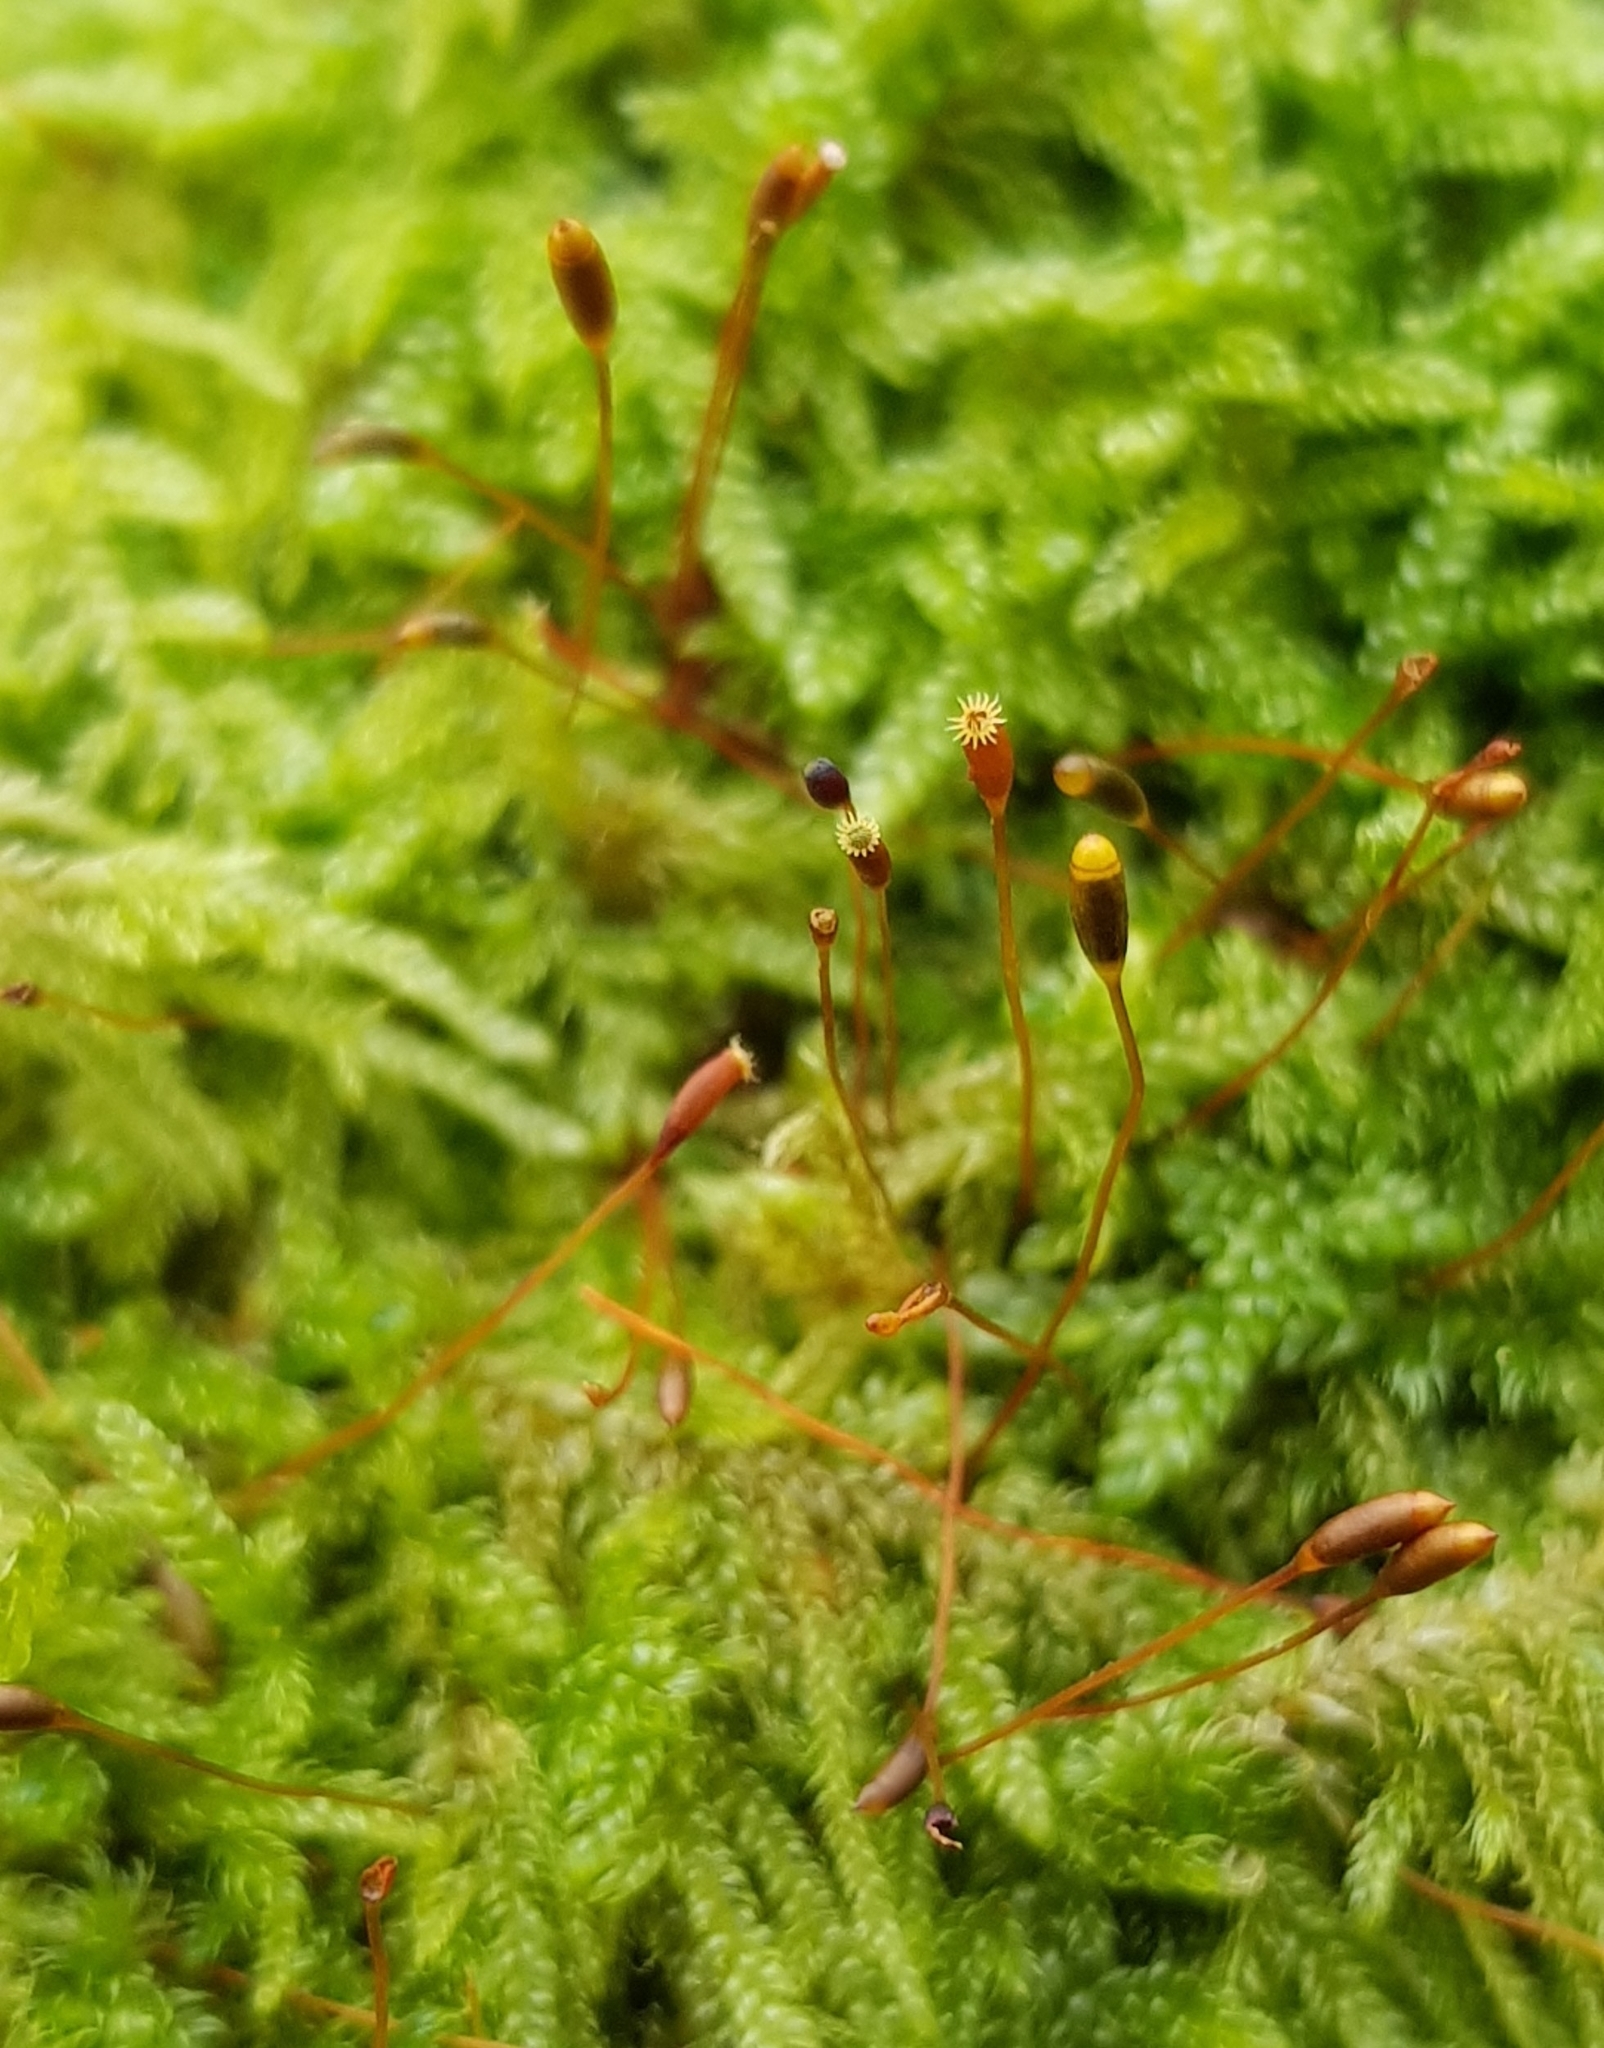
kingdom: Plantae
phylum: Bryophyta
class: Bryopsida
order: Hypnales
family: Hypnaceae
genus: Hypnum
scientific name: Hypnum andoi
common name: Ando's plait moss
